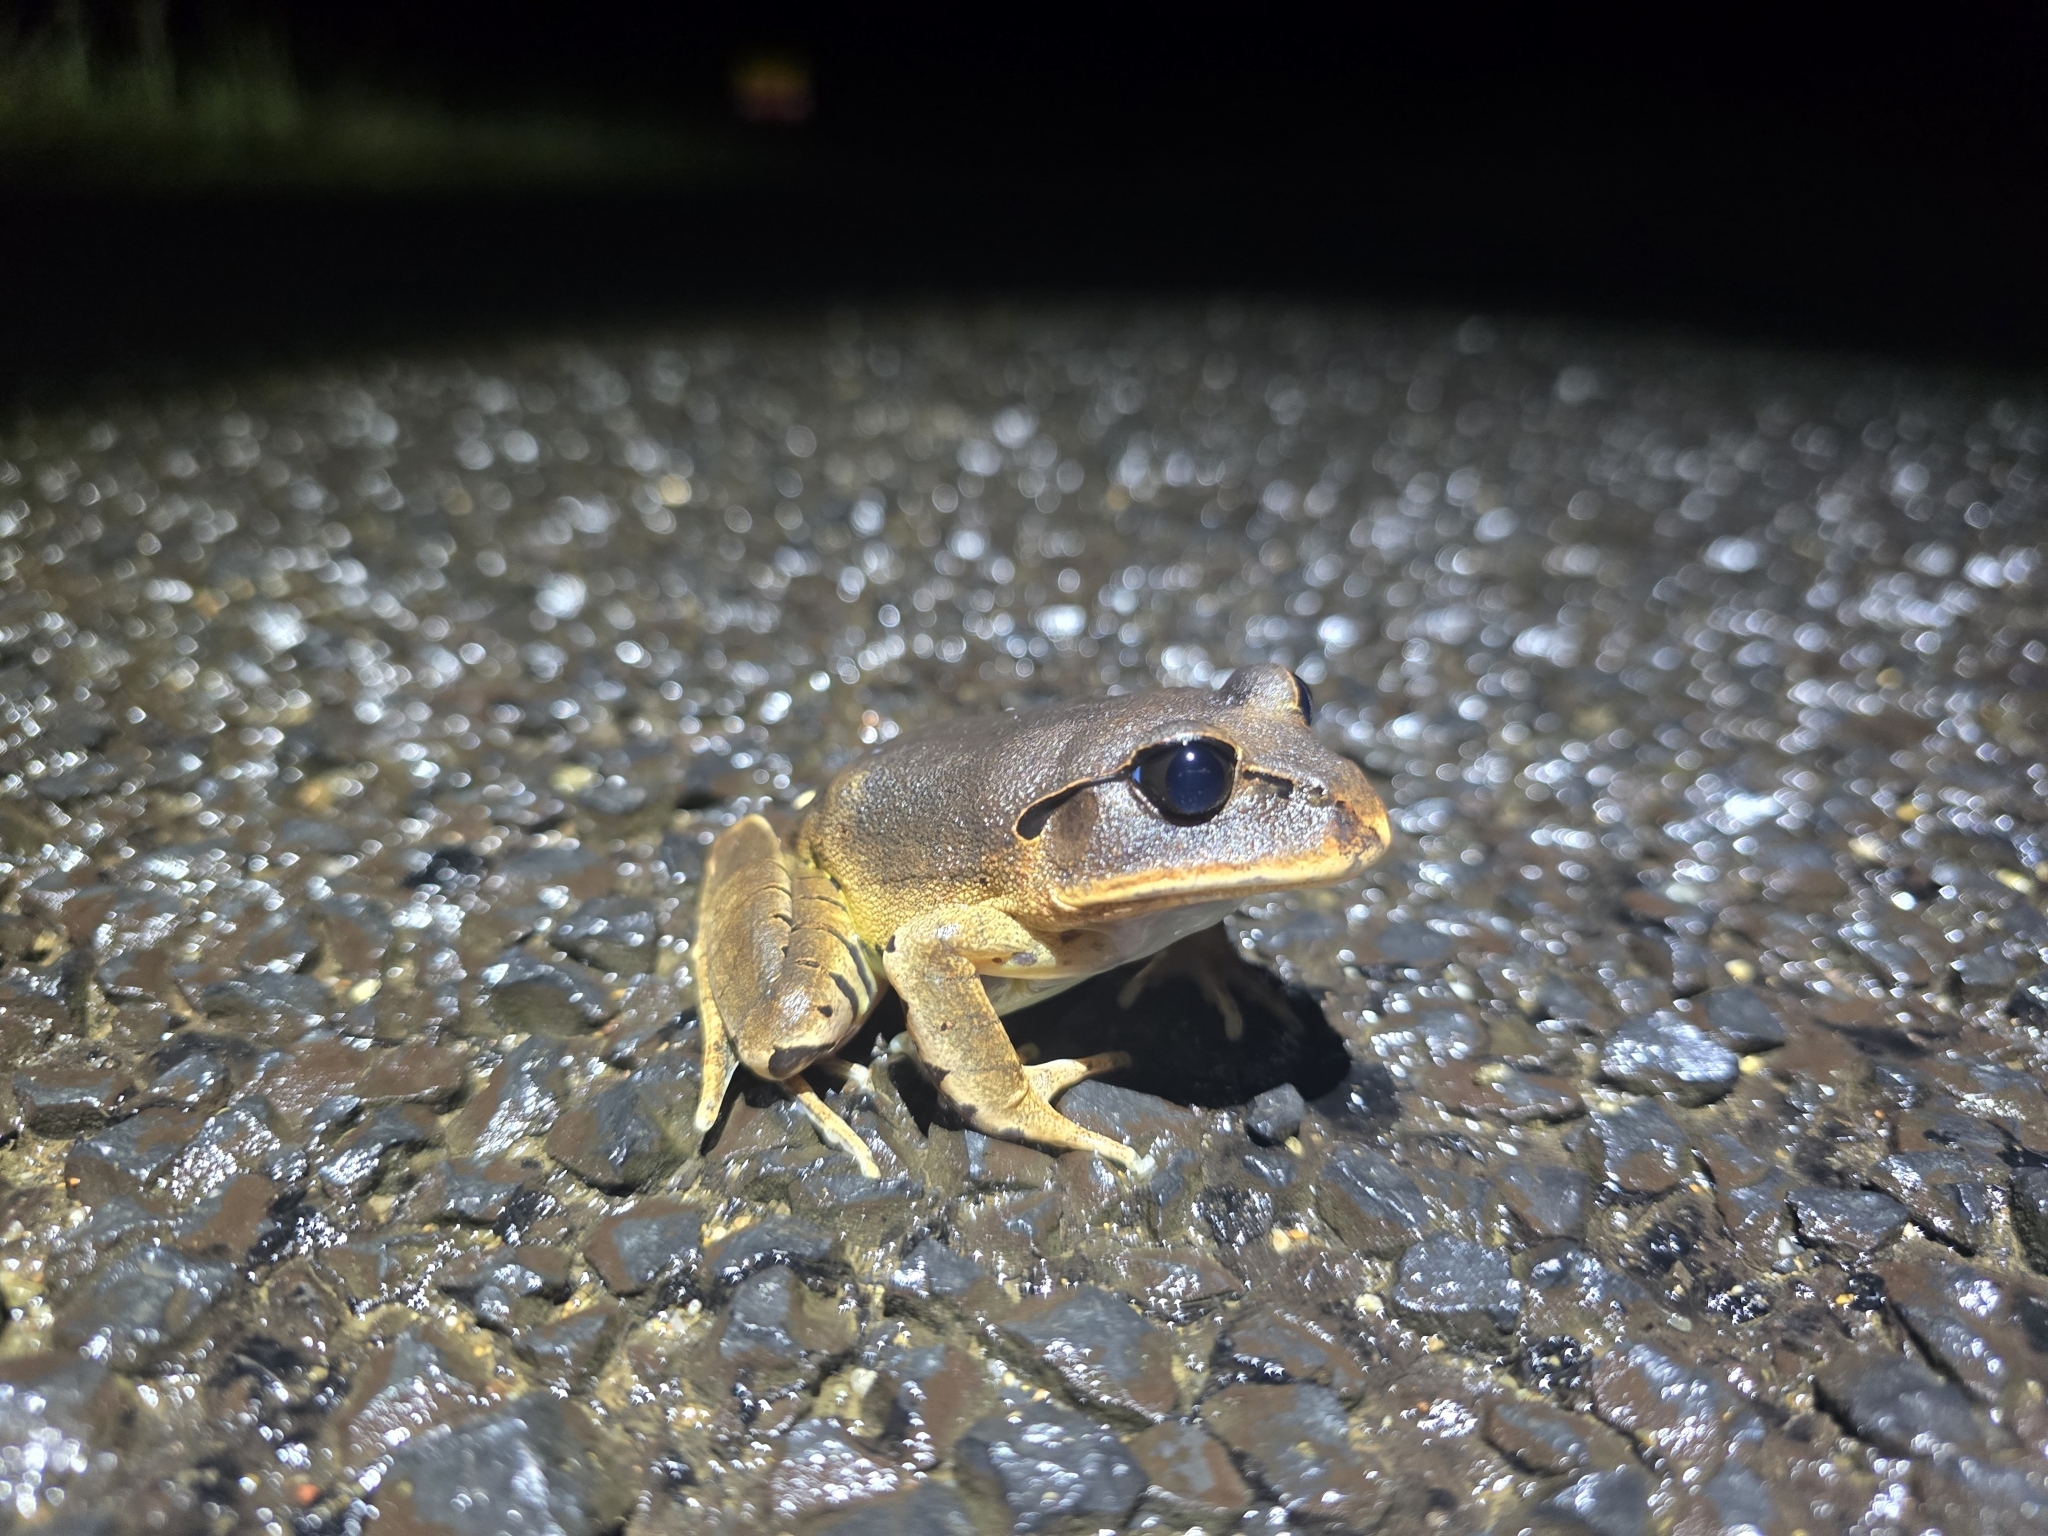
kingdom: Animalia
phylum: Chordata
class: Amphibia
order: Anura
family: Myobatrachidae
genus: Mixophyes
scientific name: Mixophyes fasciolatus
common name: Great barred river-frog
